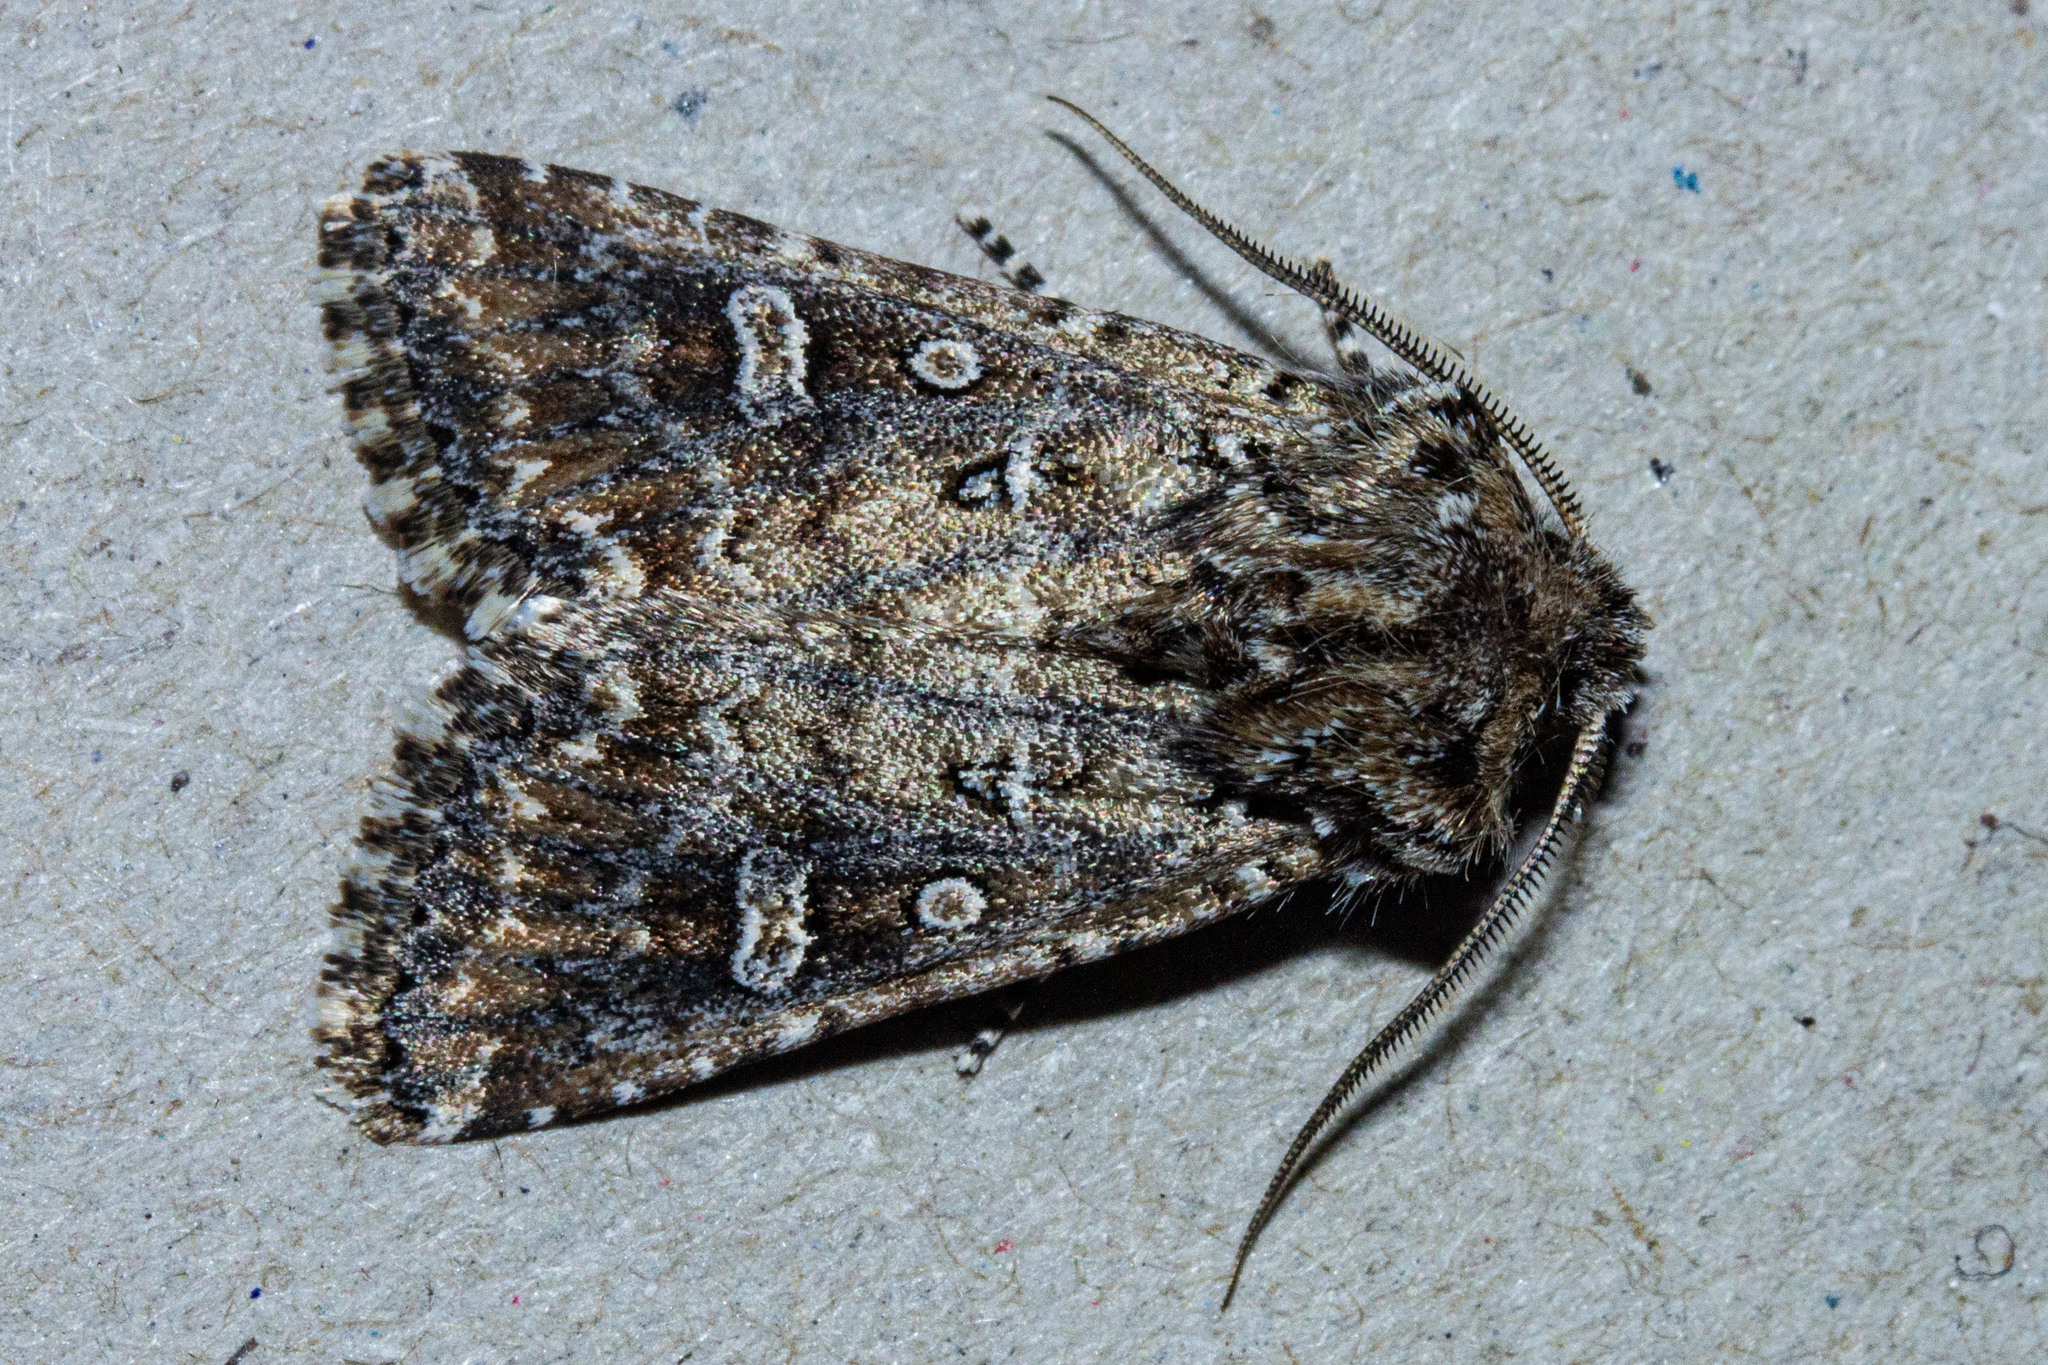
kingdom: Animalia
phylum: Arthropoda
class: Insecta
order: Lepidoptera
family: Noctuidae
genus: Ichneutica
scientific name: Ichneutica lithias
